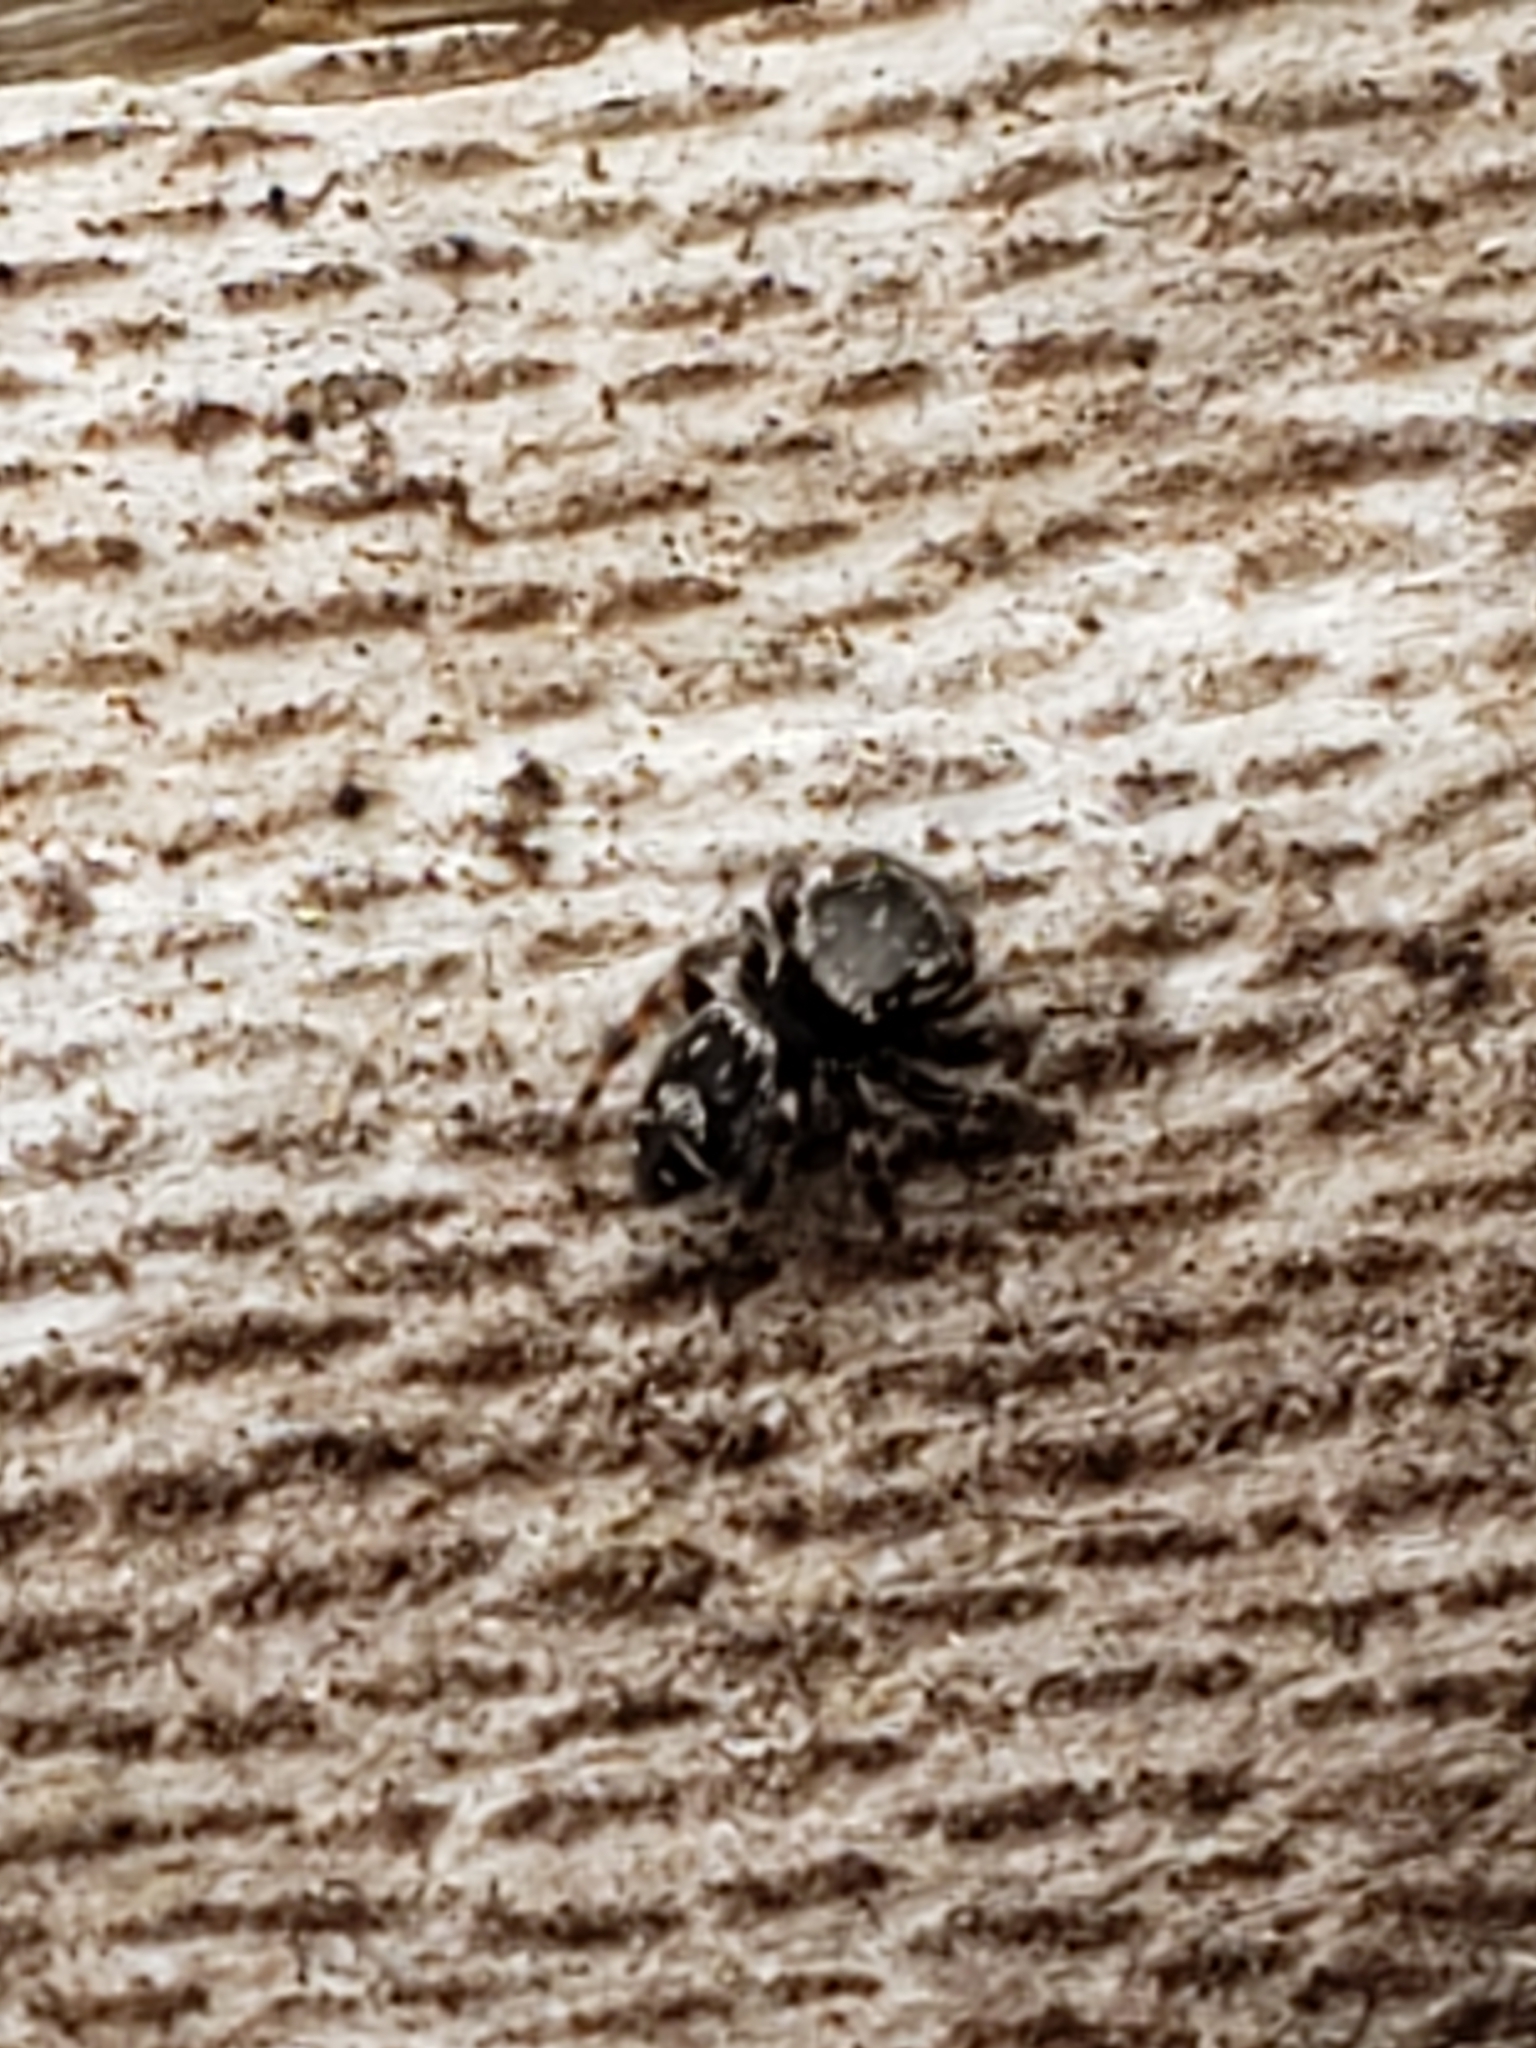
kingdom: Animalia
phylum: Arthropoda
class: Arachnida
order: Araneae
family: Salticidae
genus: Phidippus
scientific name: Phidippus putnami
